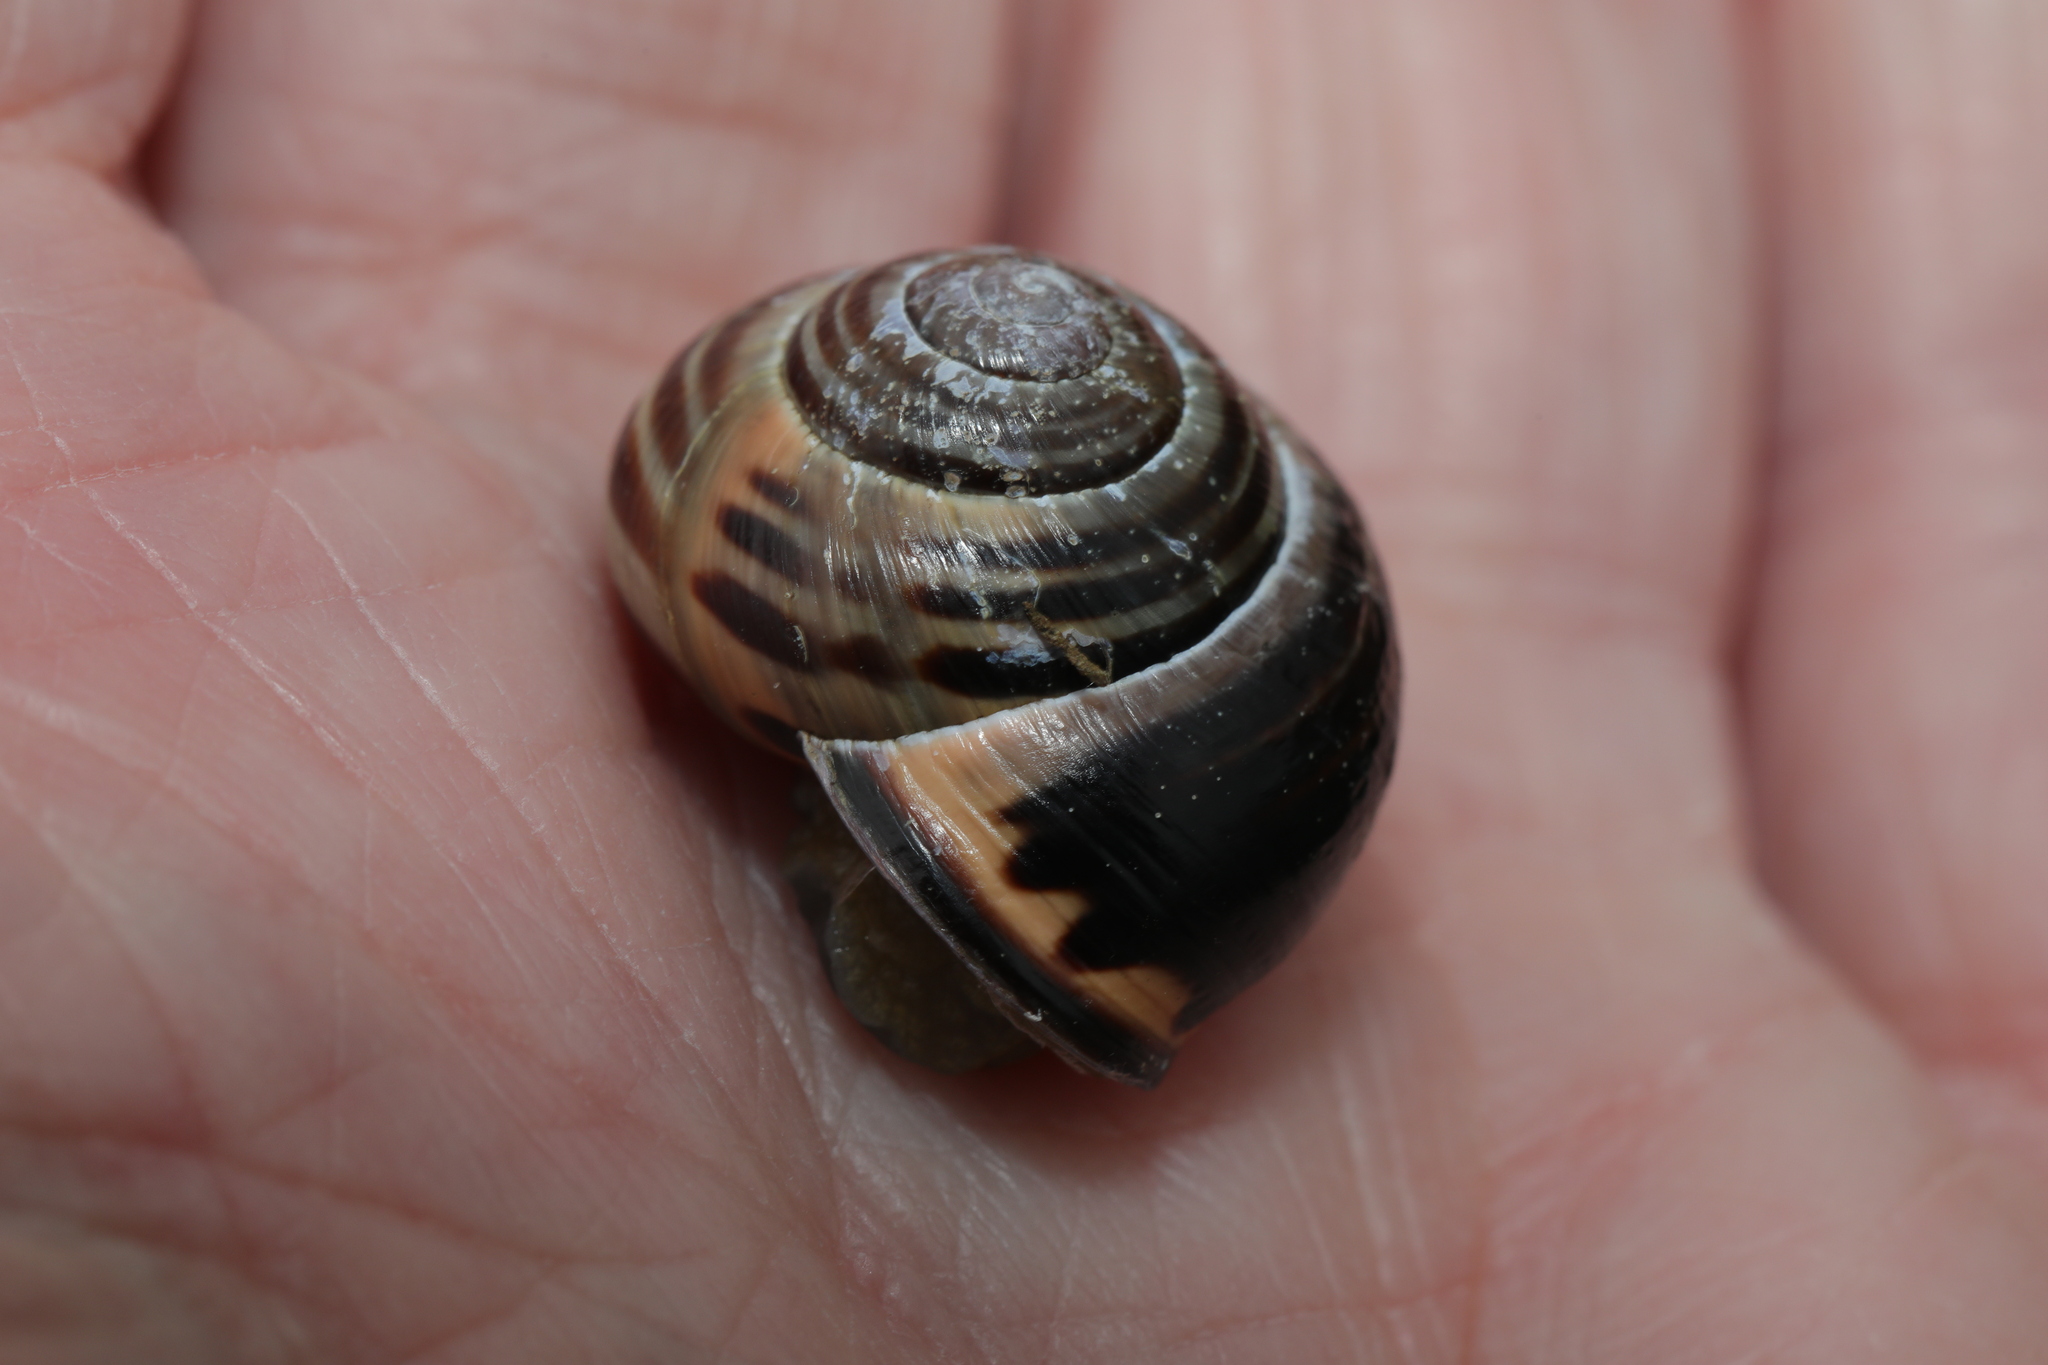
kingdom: Animalia
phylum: Mollusca
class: Gastropoda
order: Stylommatophora
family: Helicidae
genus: Cepaea
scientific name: Cepaea nemoralis
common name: Grovesnail
